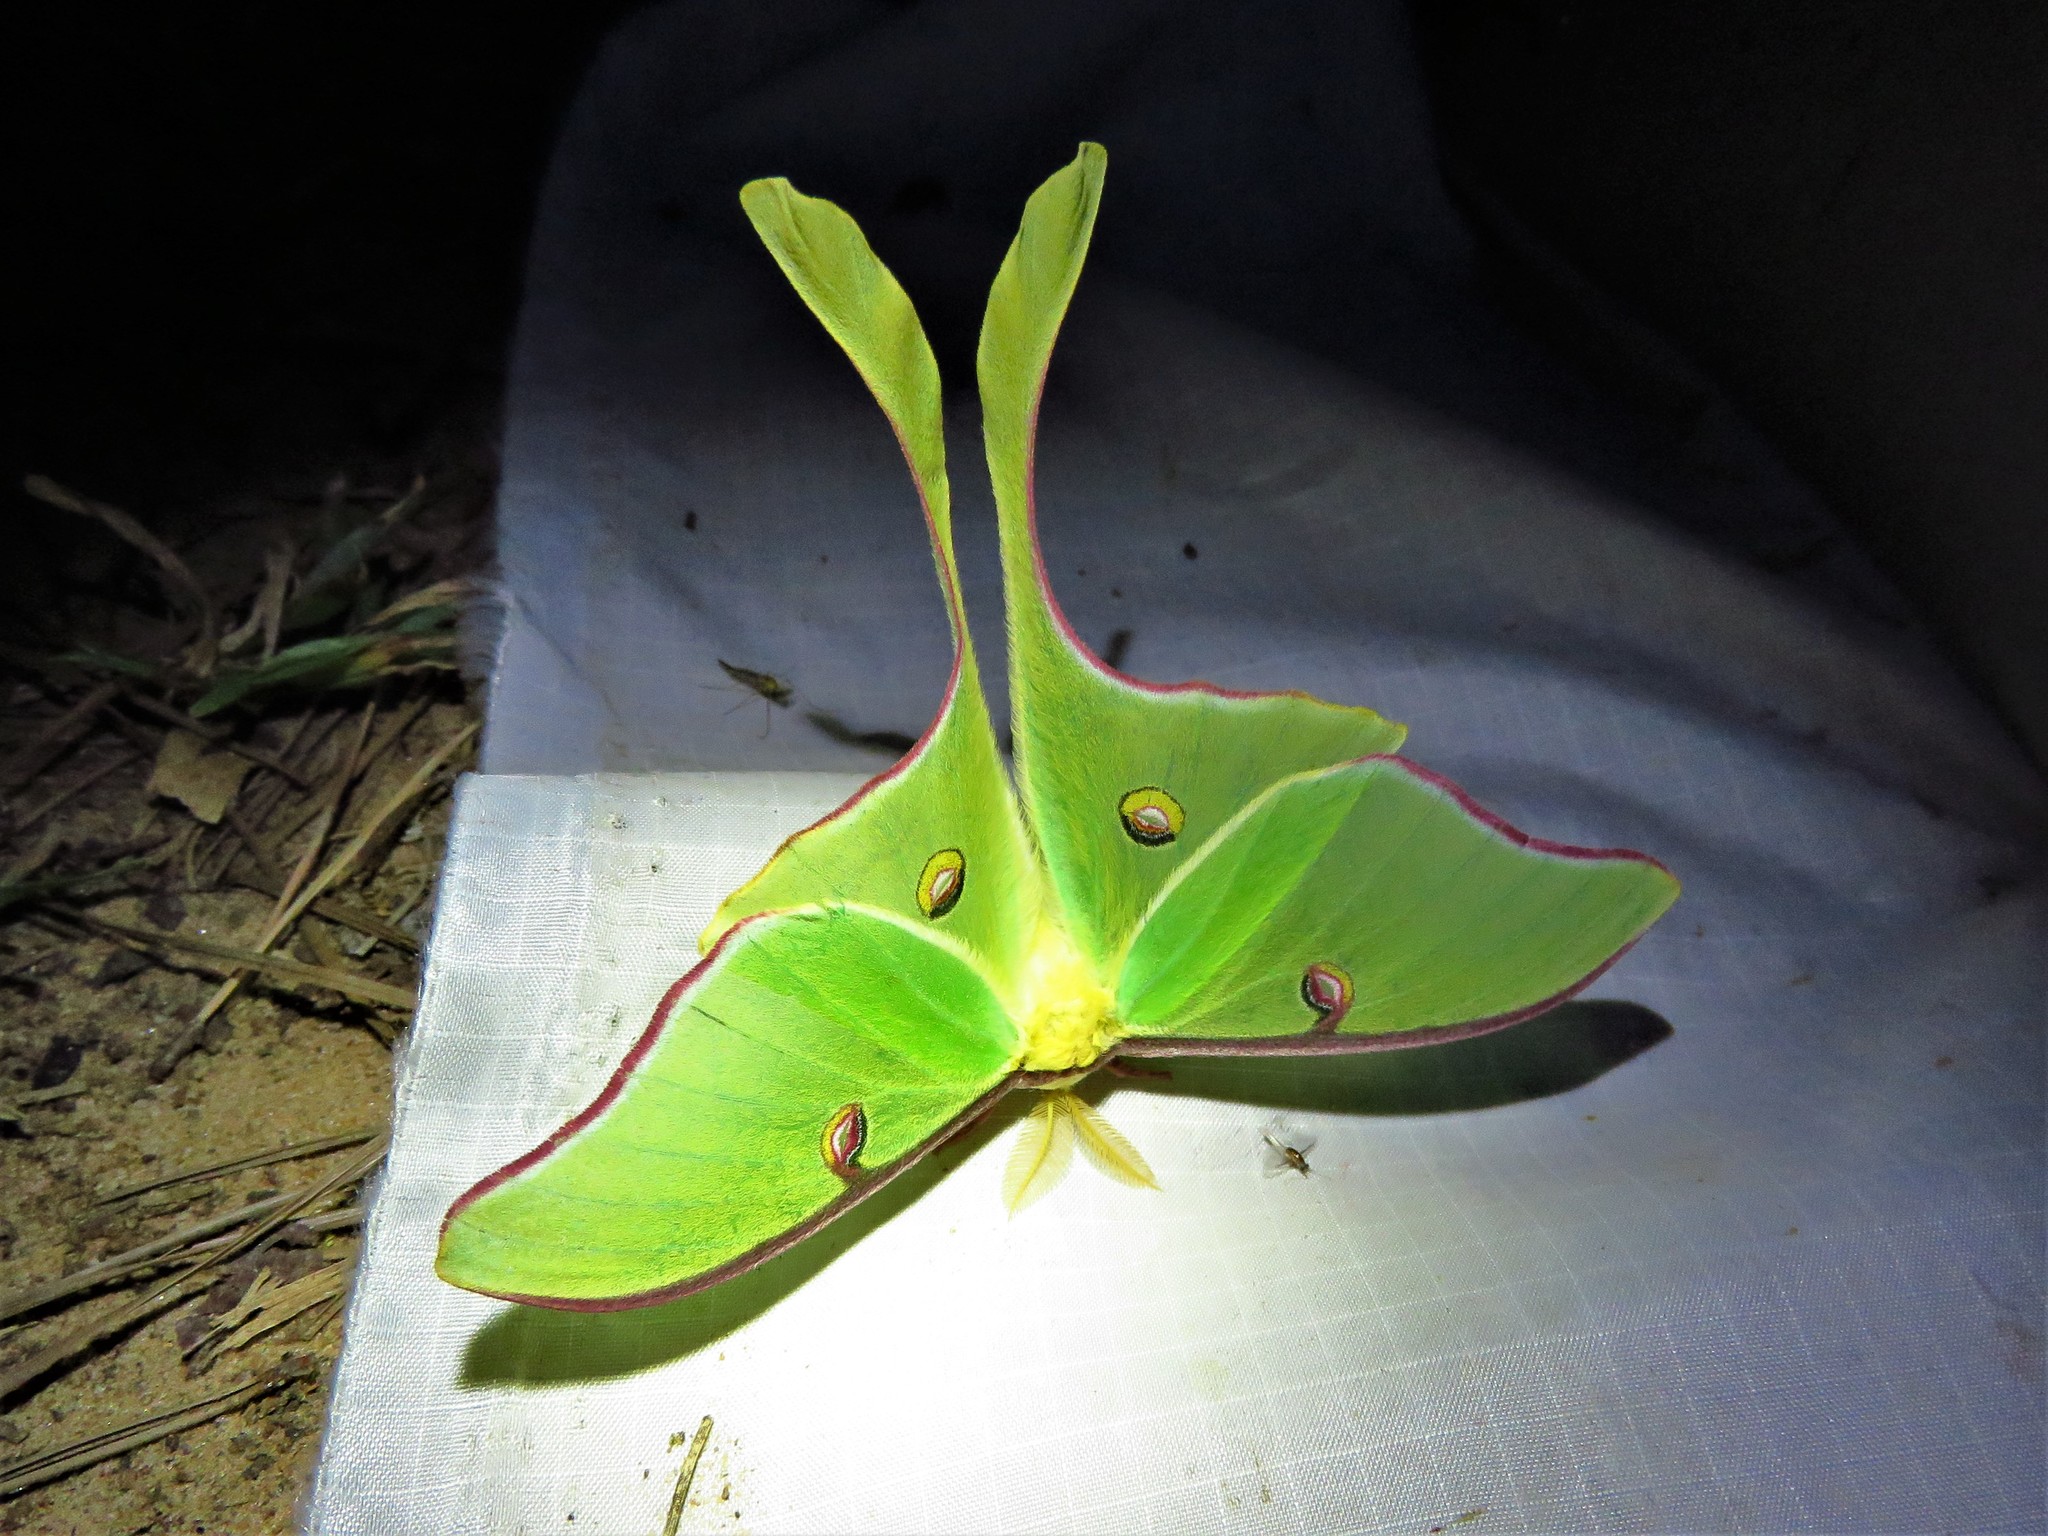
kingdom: Animalia
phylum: Arthropoda
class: Insecta
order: Lepidoptera
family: Saturniidae
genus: Actias
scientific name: Actias luna
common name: Luna moth
